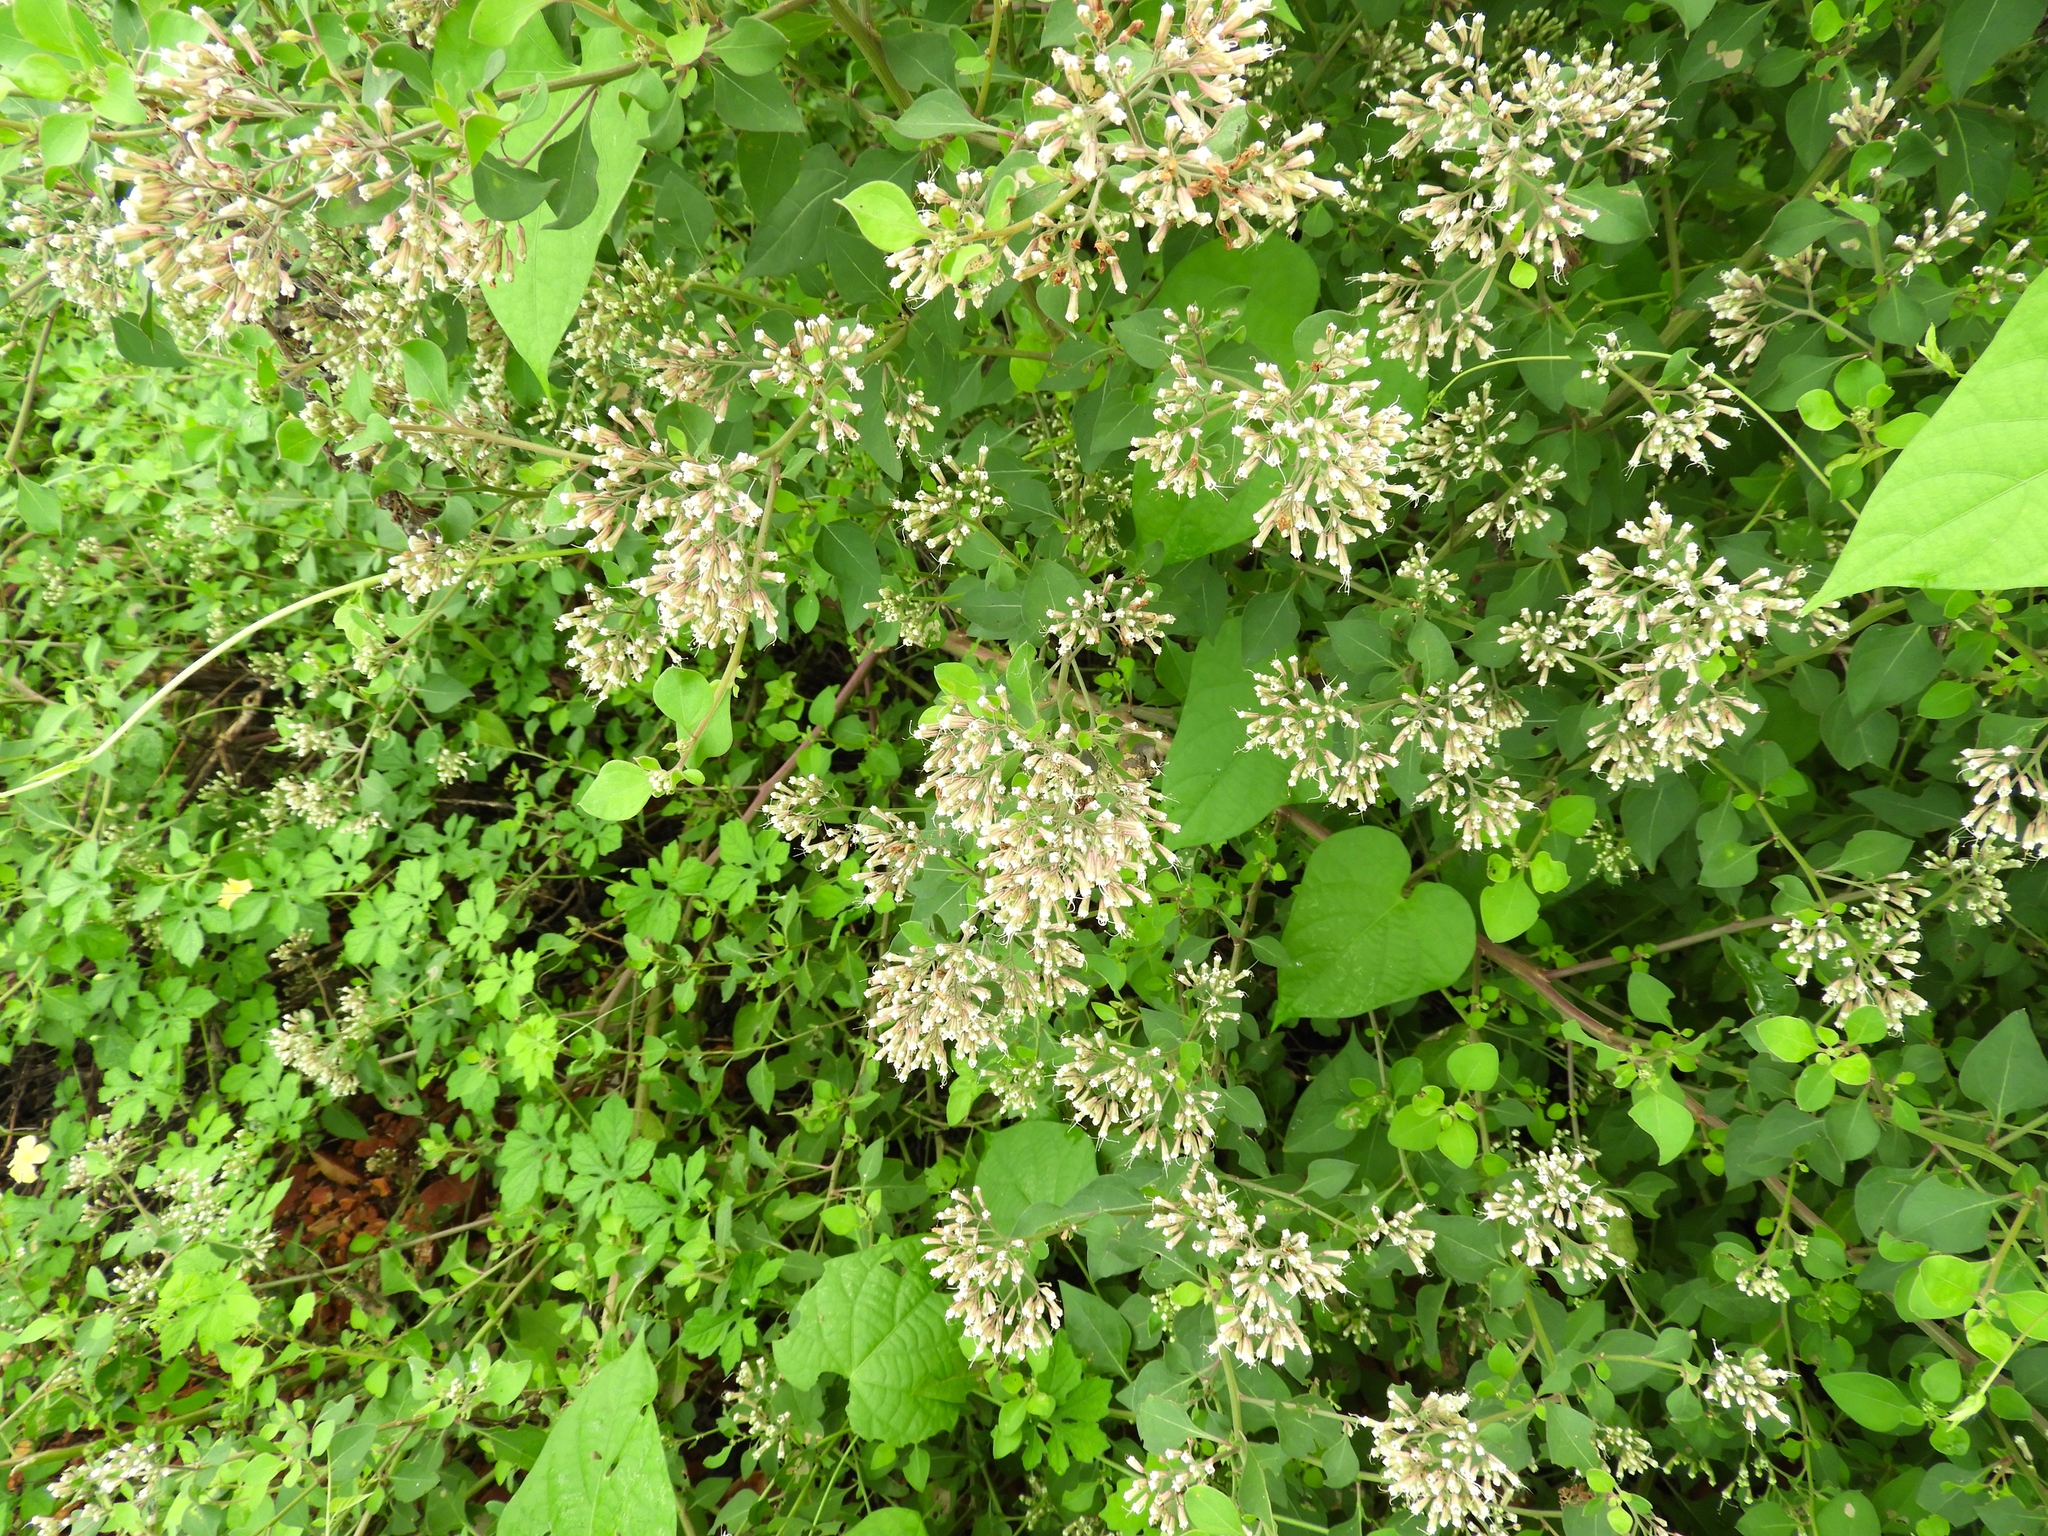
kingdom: Plantae
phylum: Tracheophyta
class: Magnoliopsida
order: Caryophyllales
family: Nyctaginaceae
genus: Salpianthus
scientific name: Salpianthus arenarius
